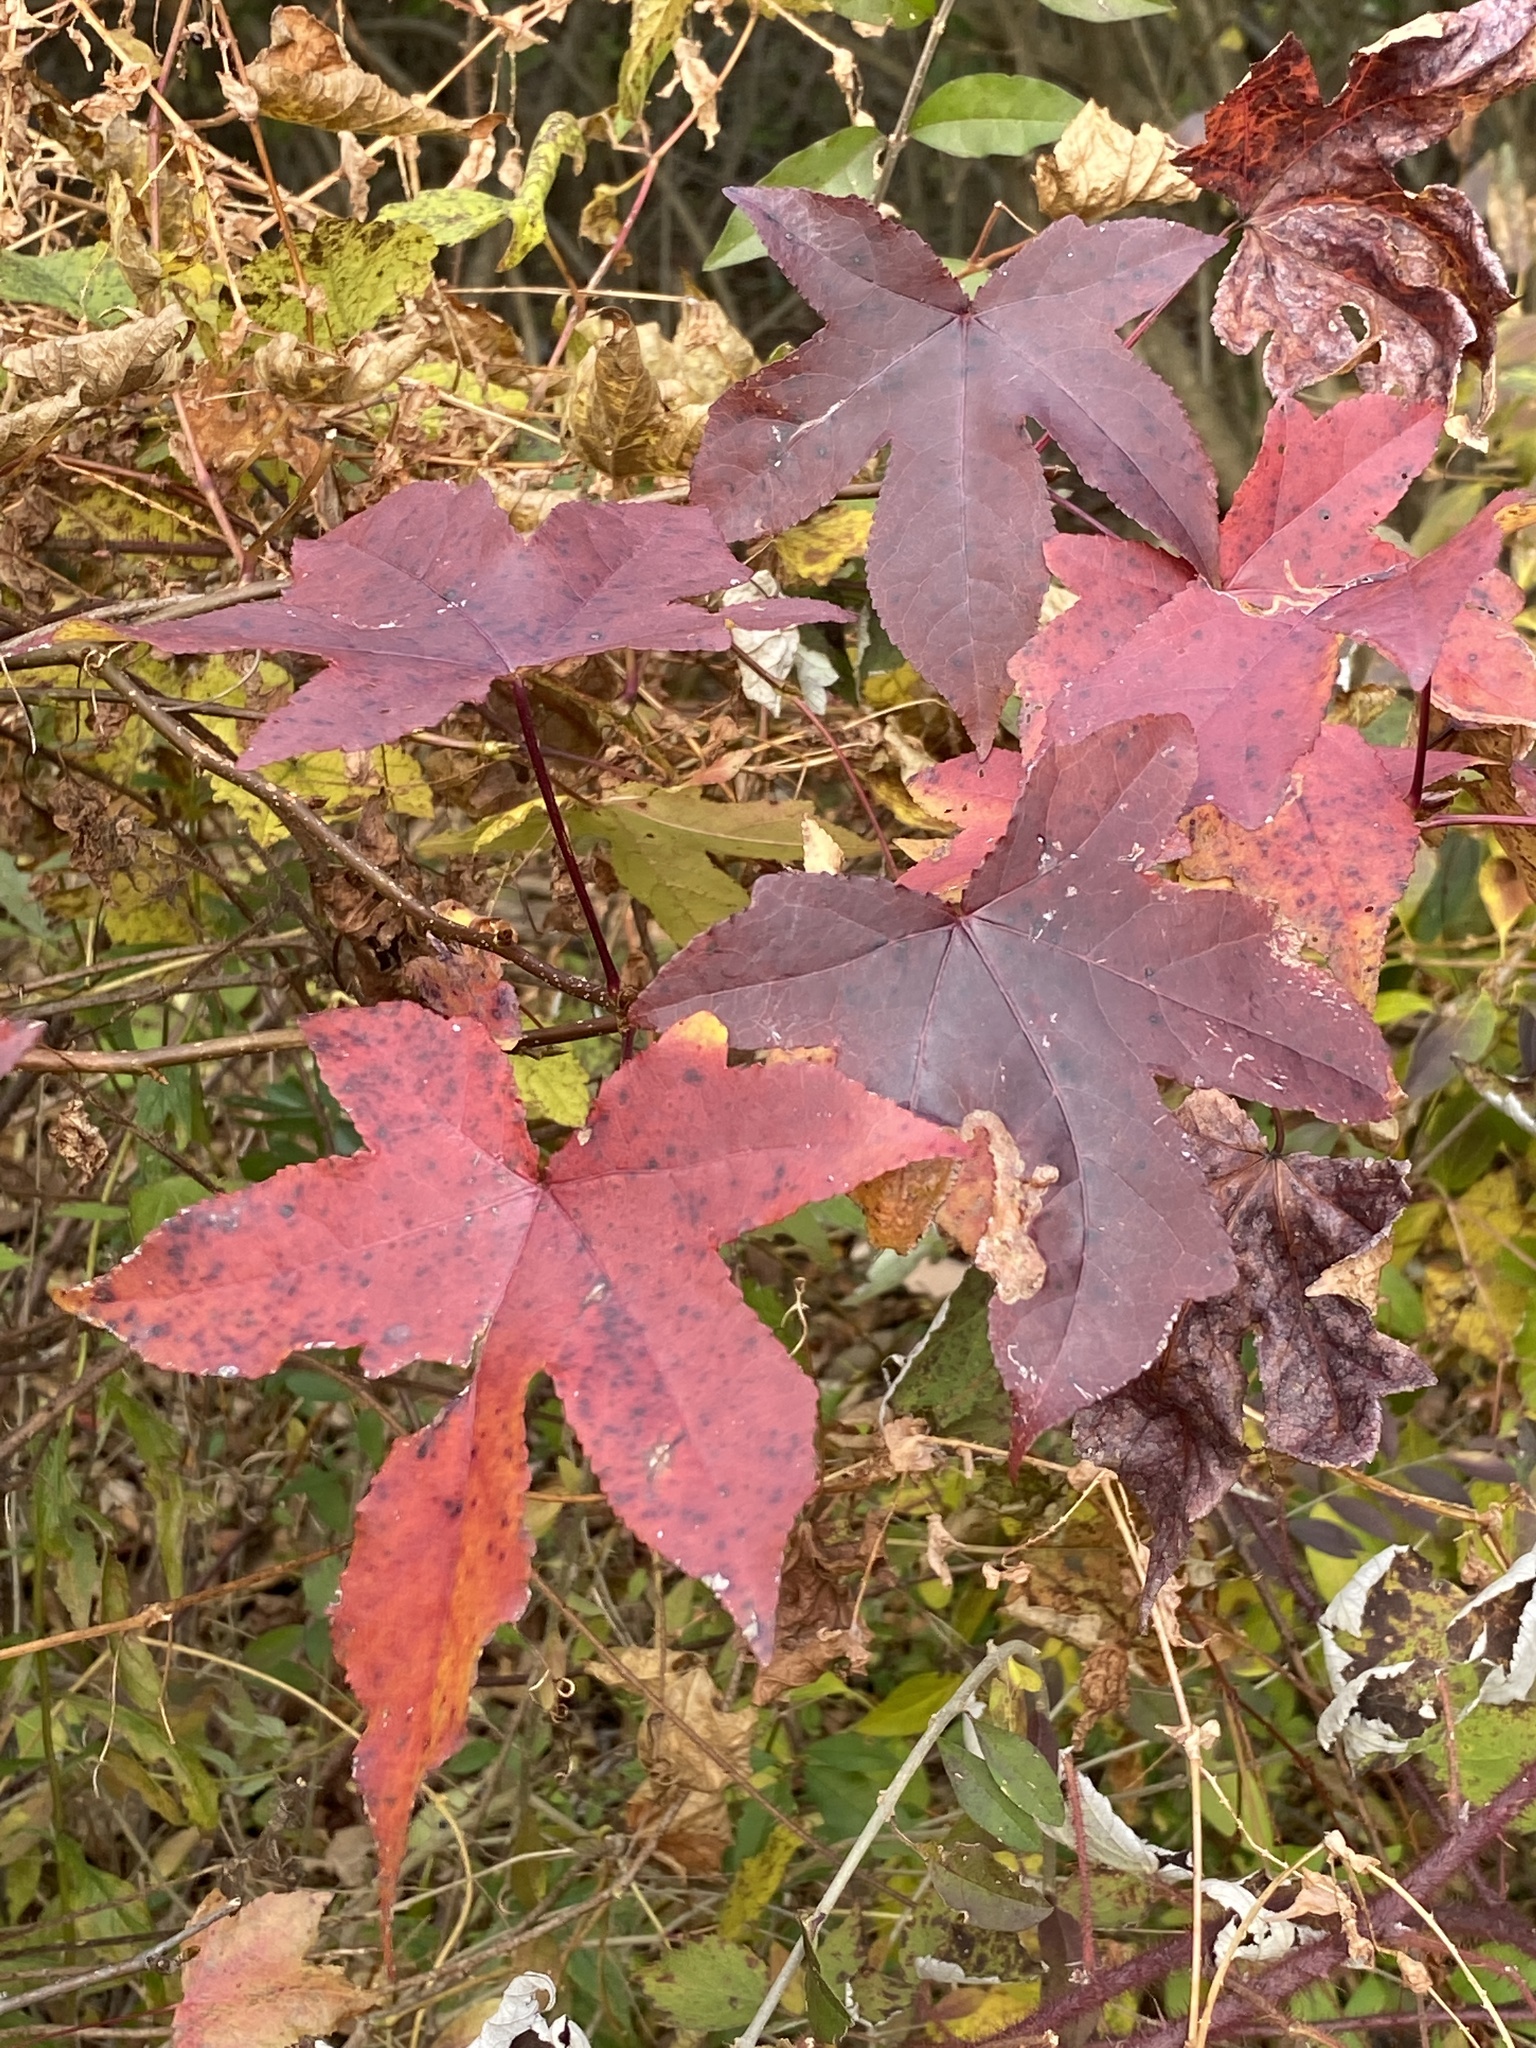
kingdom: Plantae
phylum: Tracheophyta
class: Magnoliopsida
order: Saxifragales
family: Altingiaceae
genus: Liquidambar
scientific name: Liquidambar styraciflua
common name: Sweet gum
